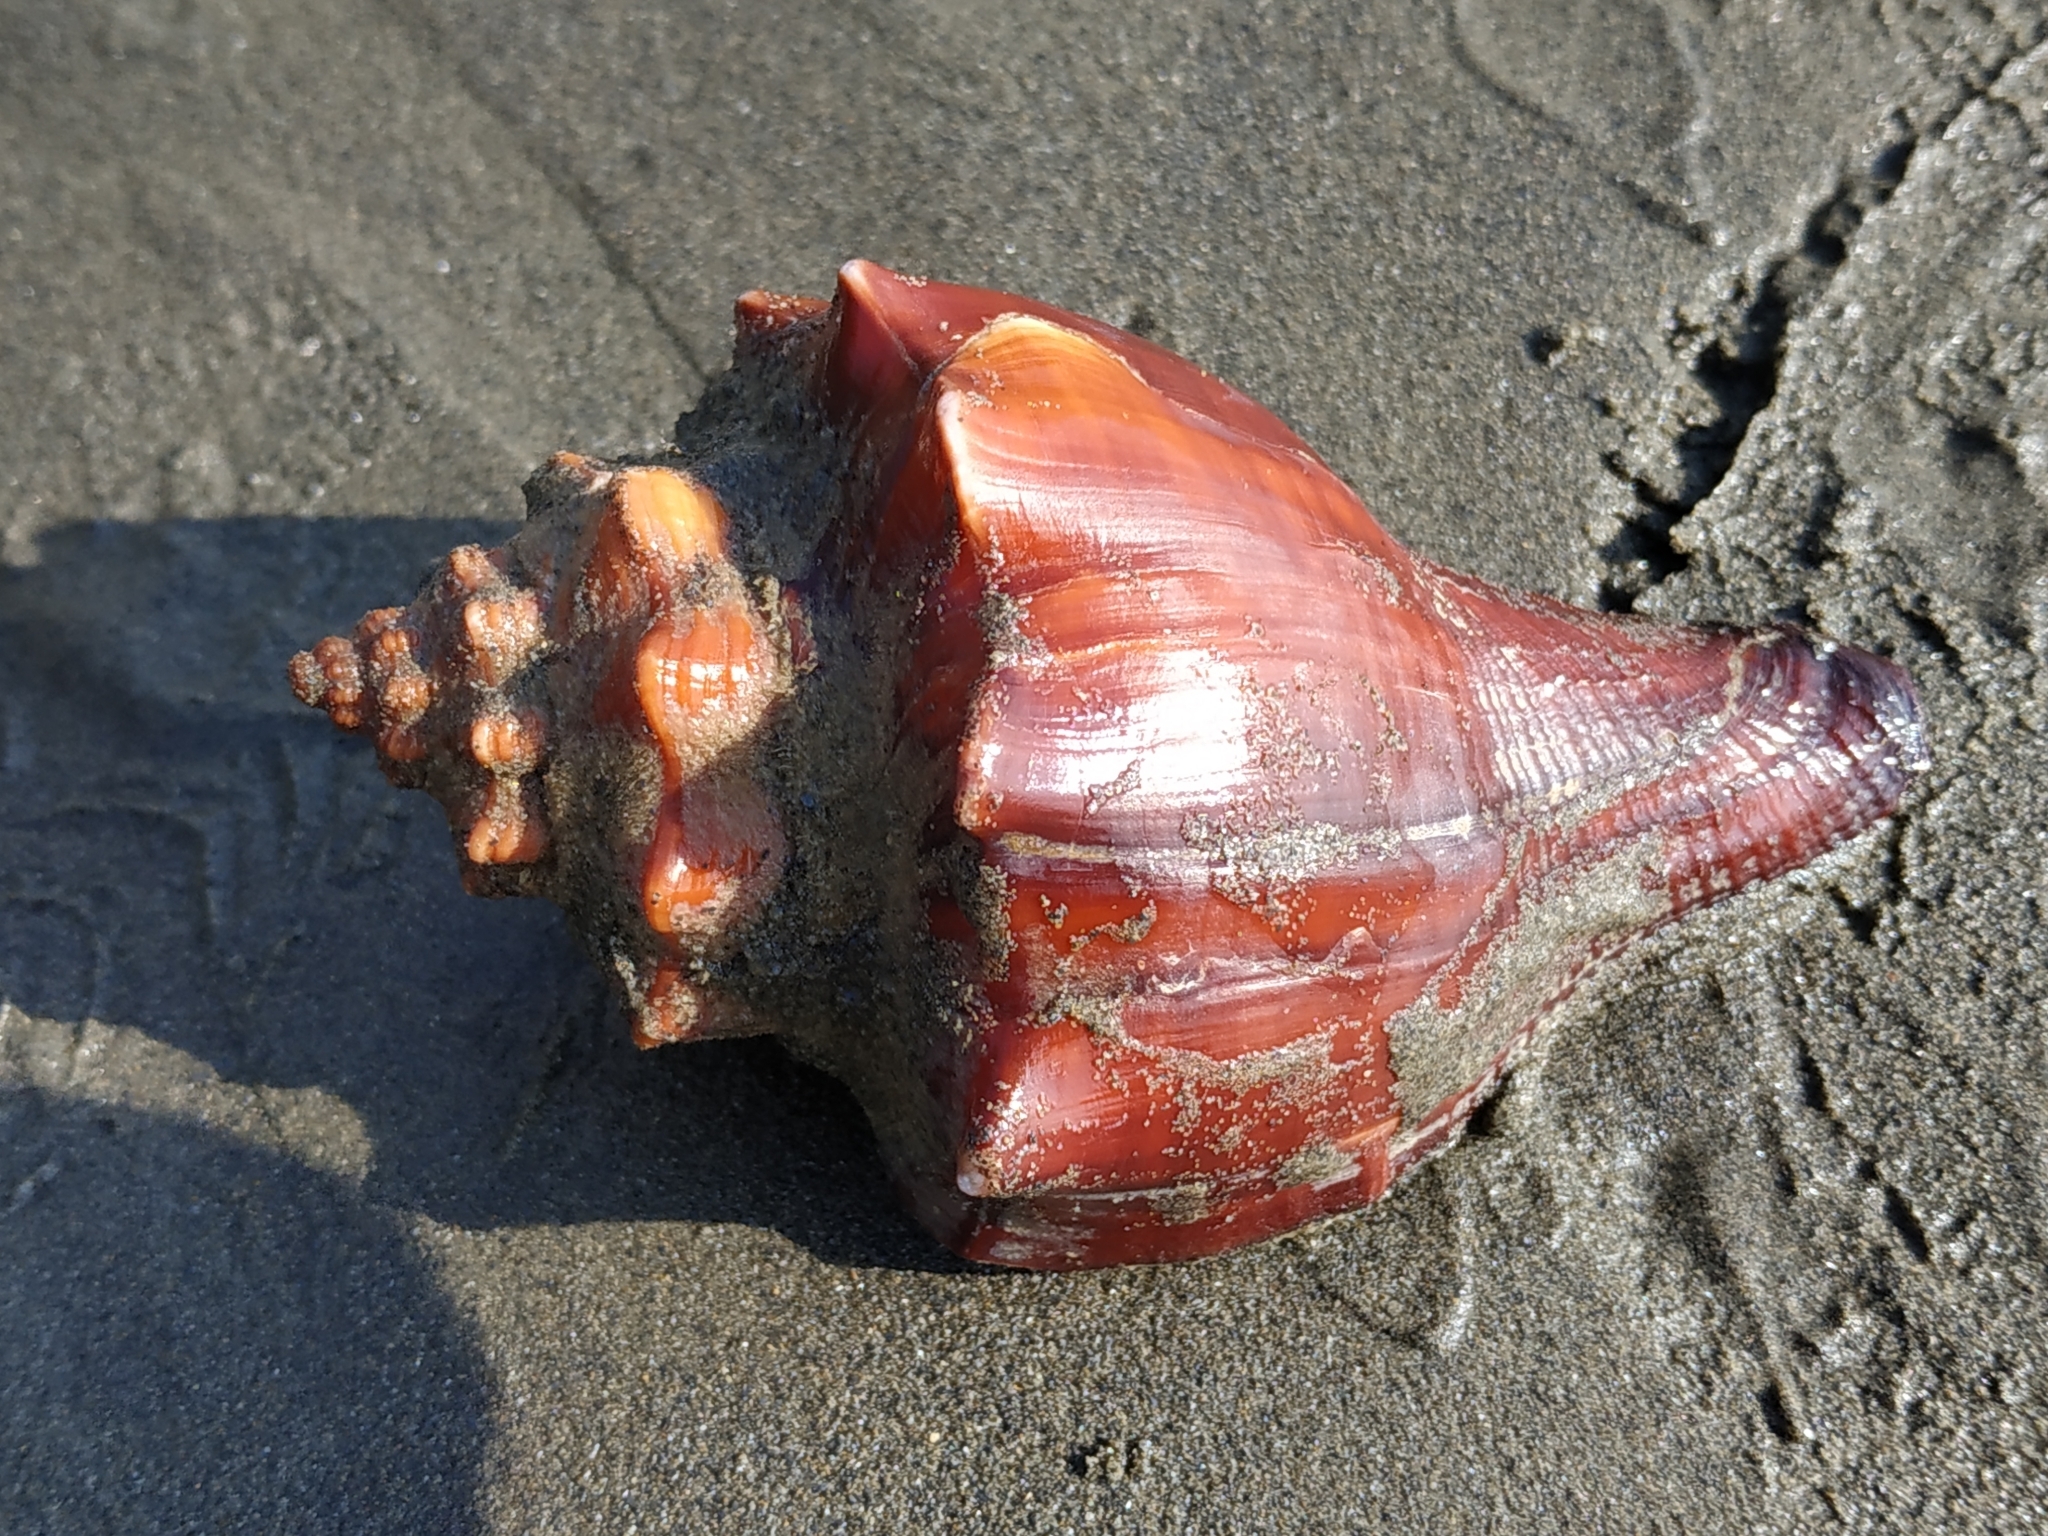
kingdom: Animalia
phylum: Mollusca
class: Gastropoda
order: Neogastropoda
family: Melongenidae
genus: Volegalea
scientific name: Volegalea cochlidium
